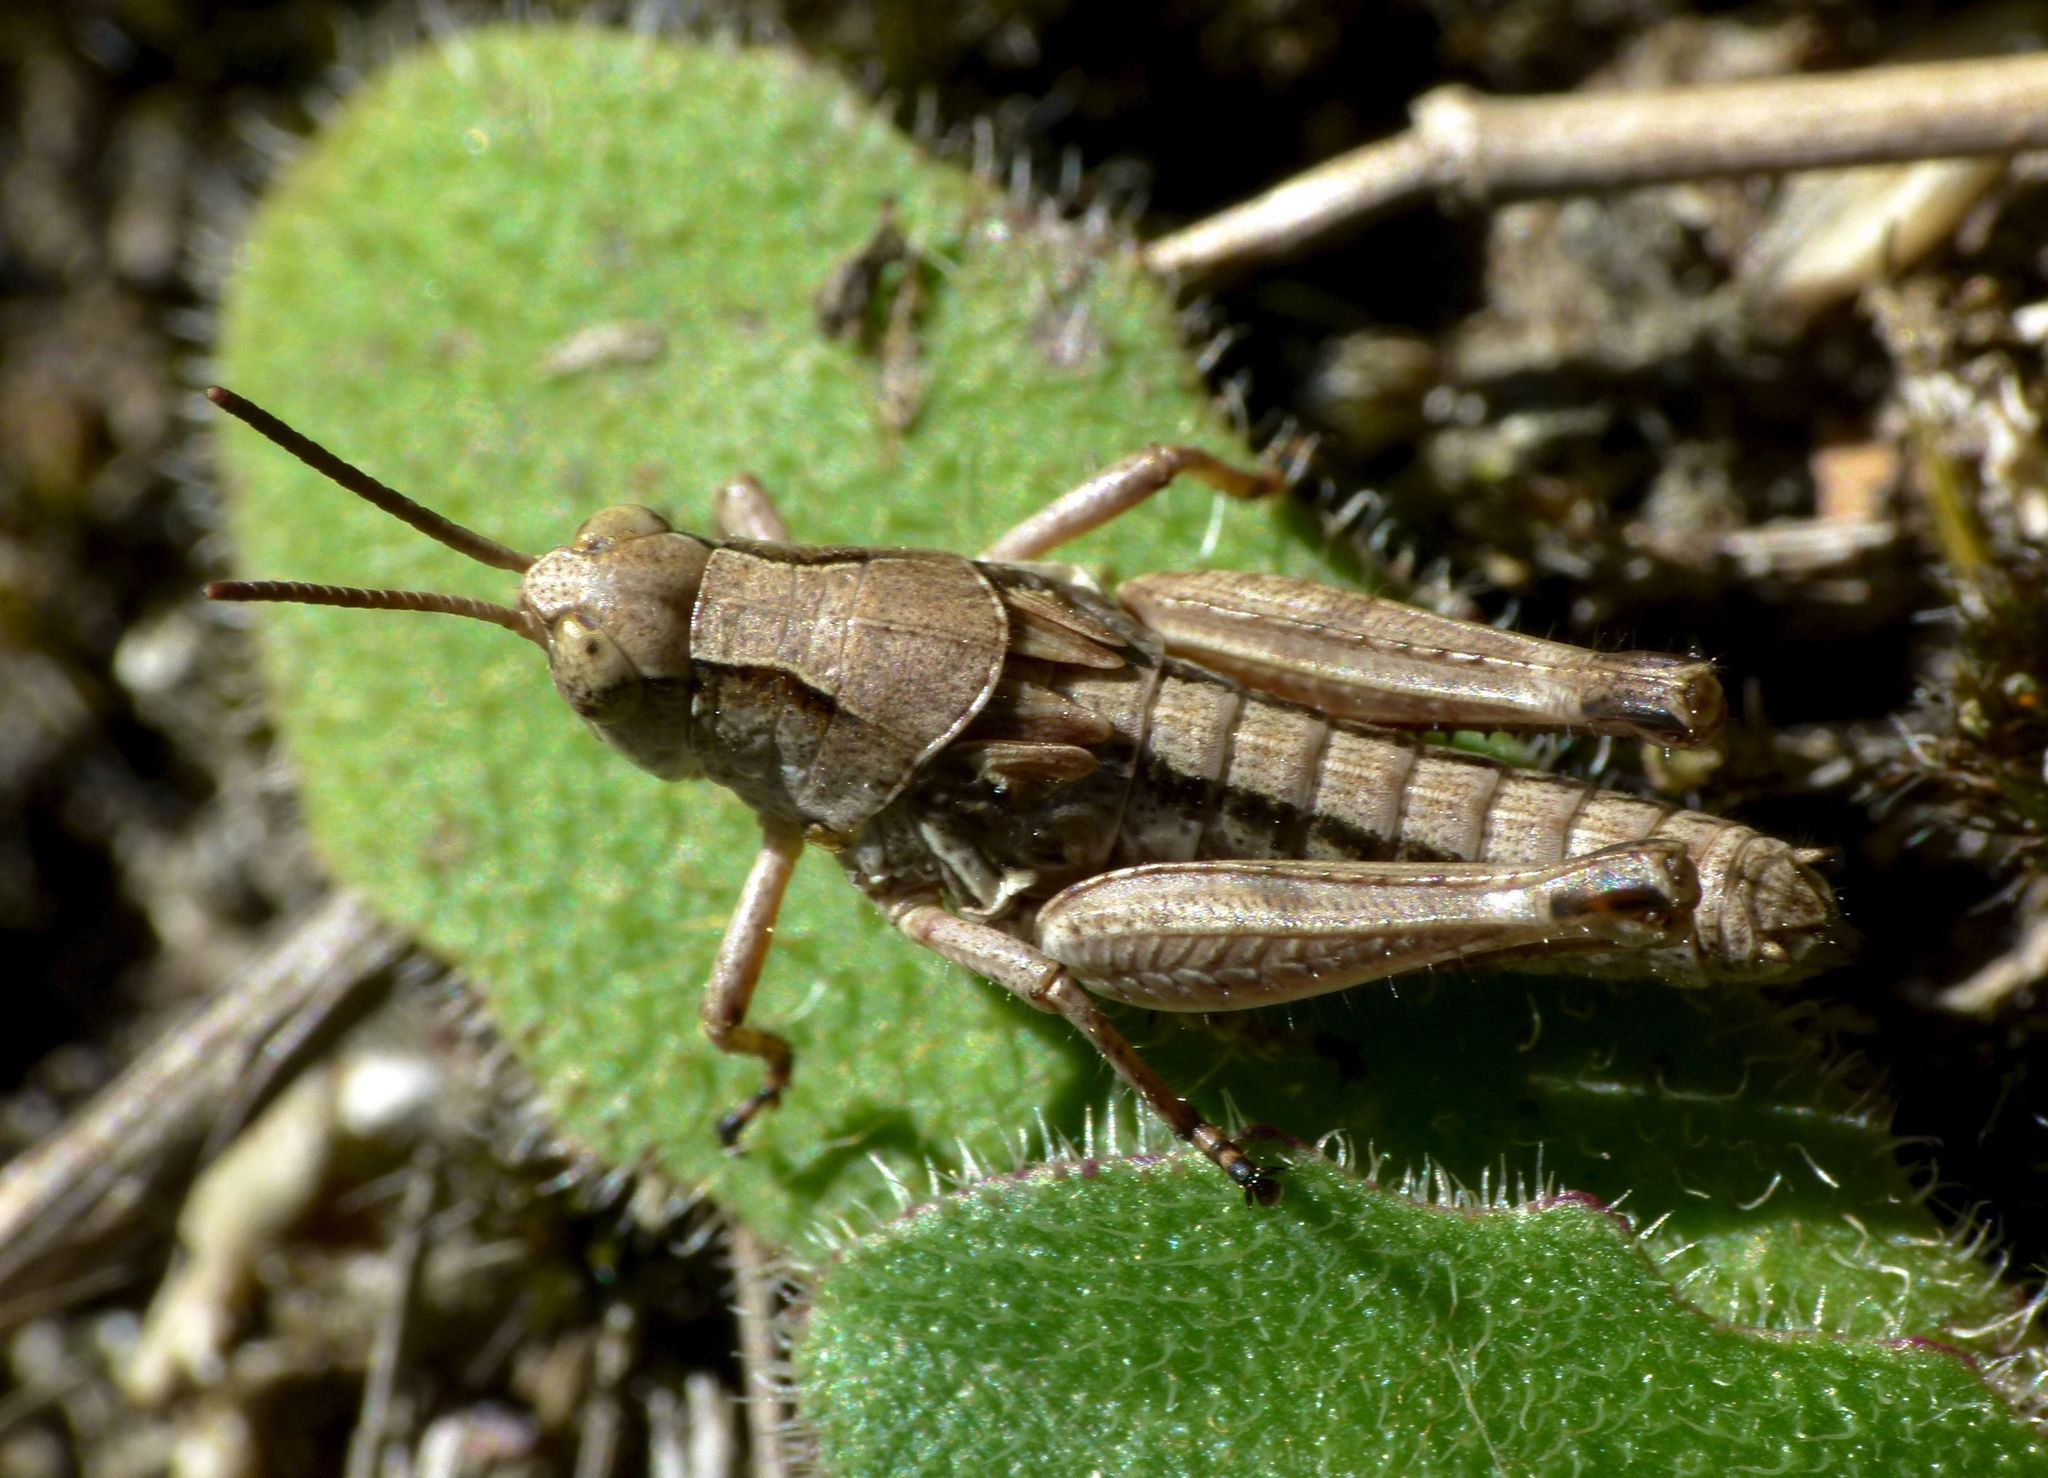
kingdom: Animalia
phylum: Arthropoda
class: Insecta
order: Orthoptera
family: Acrididae
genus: Phaulacridium
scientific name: Phaulacridium marginale
